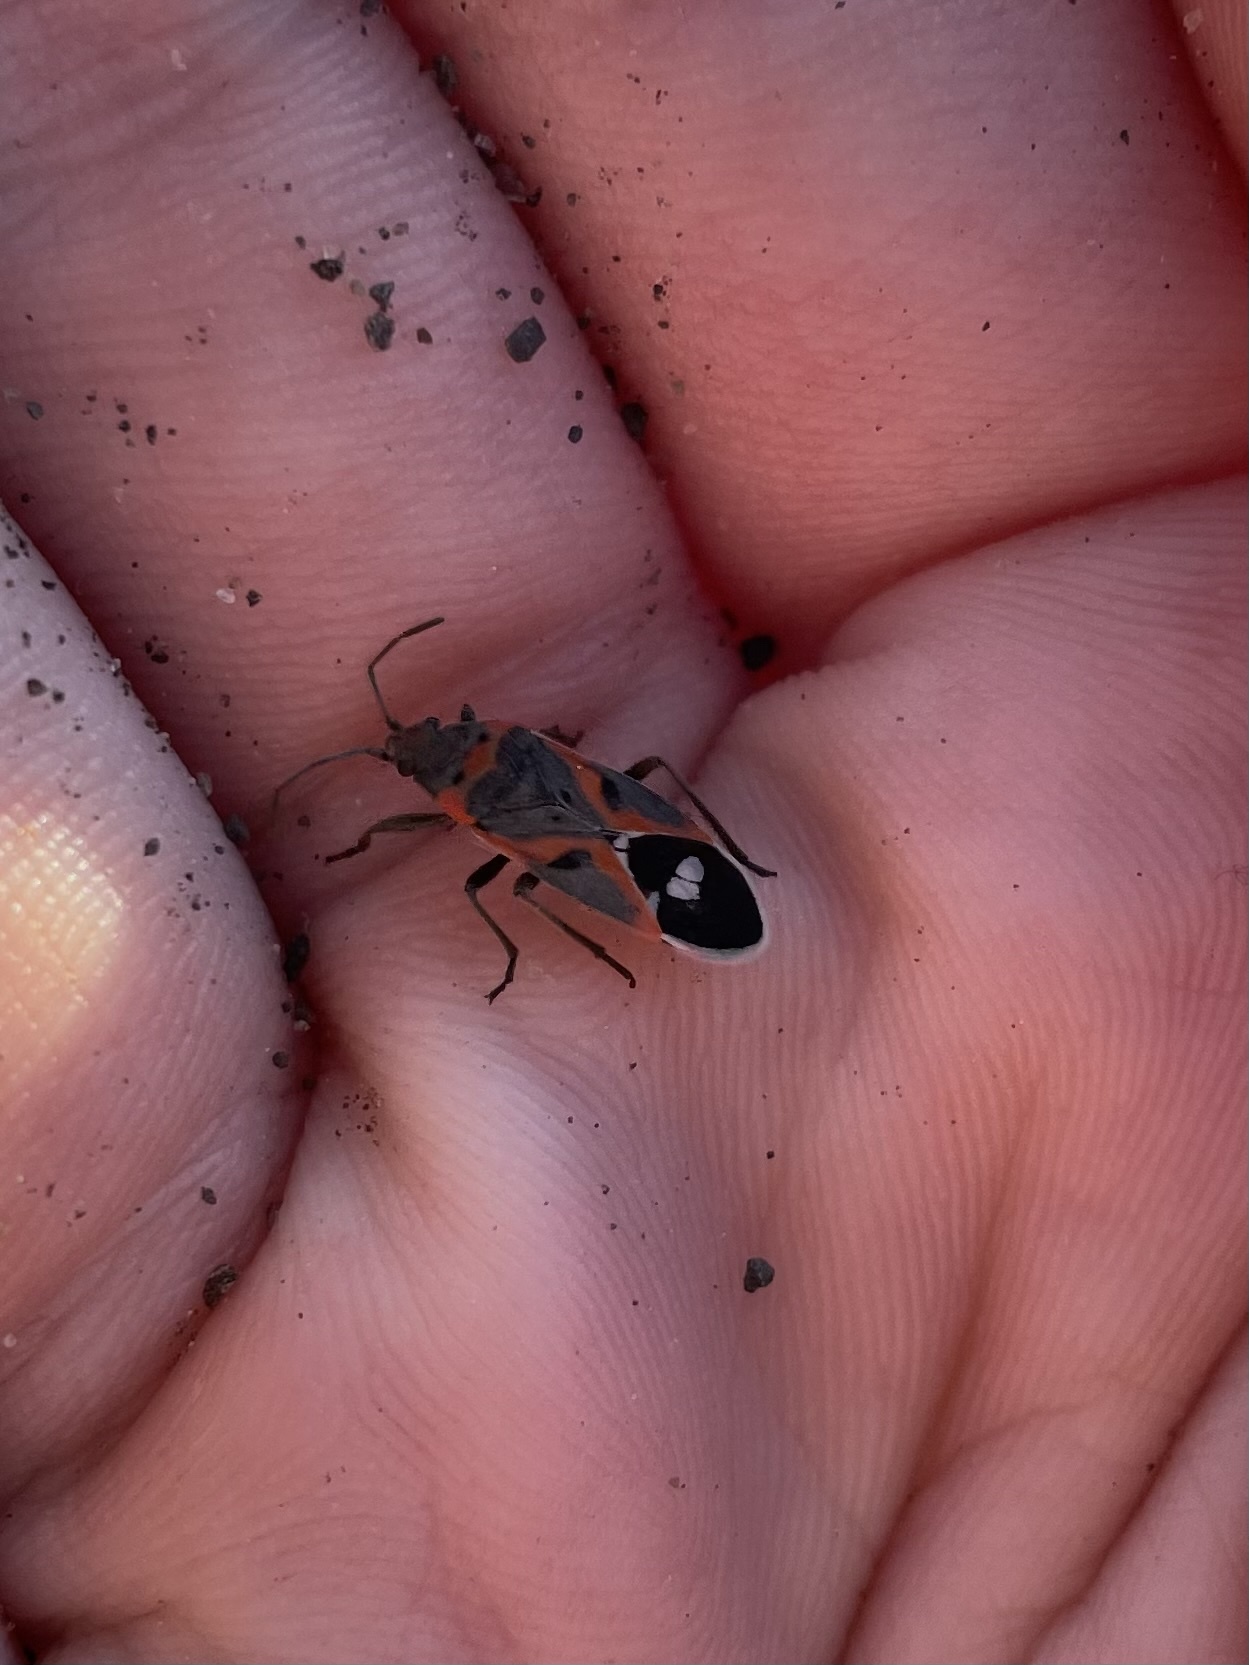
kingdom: Animalia
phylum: Arthropoda
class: Insecta
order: Hemiptera
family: Lygaeidae
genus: Lygaeus
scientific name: Lygaeus kalmii
